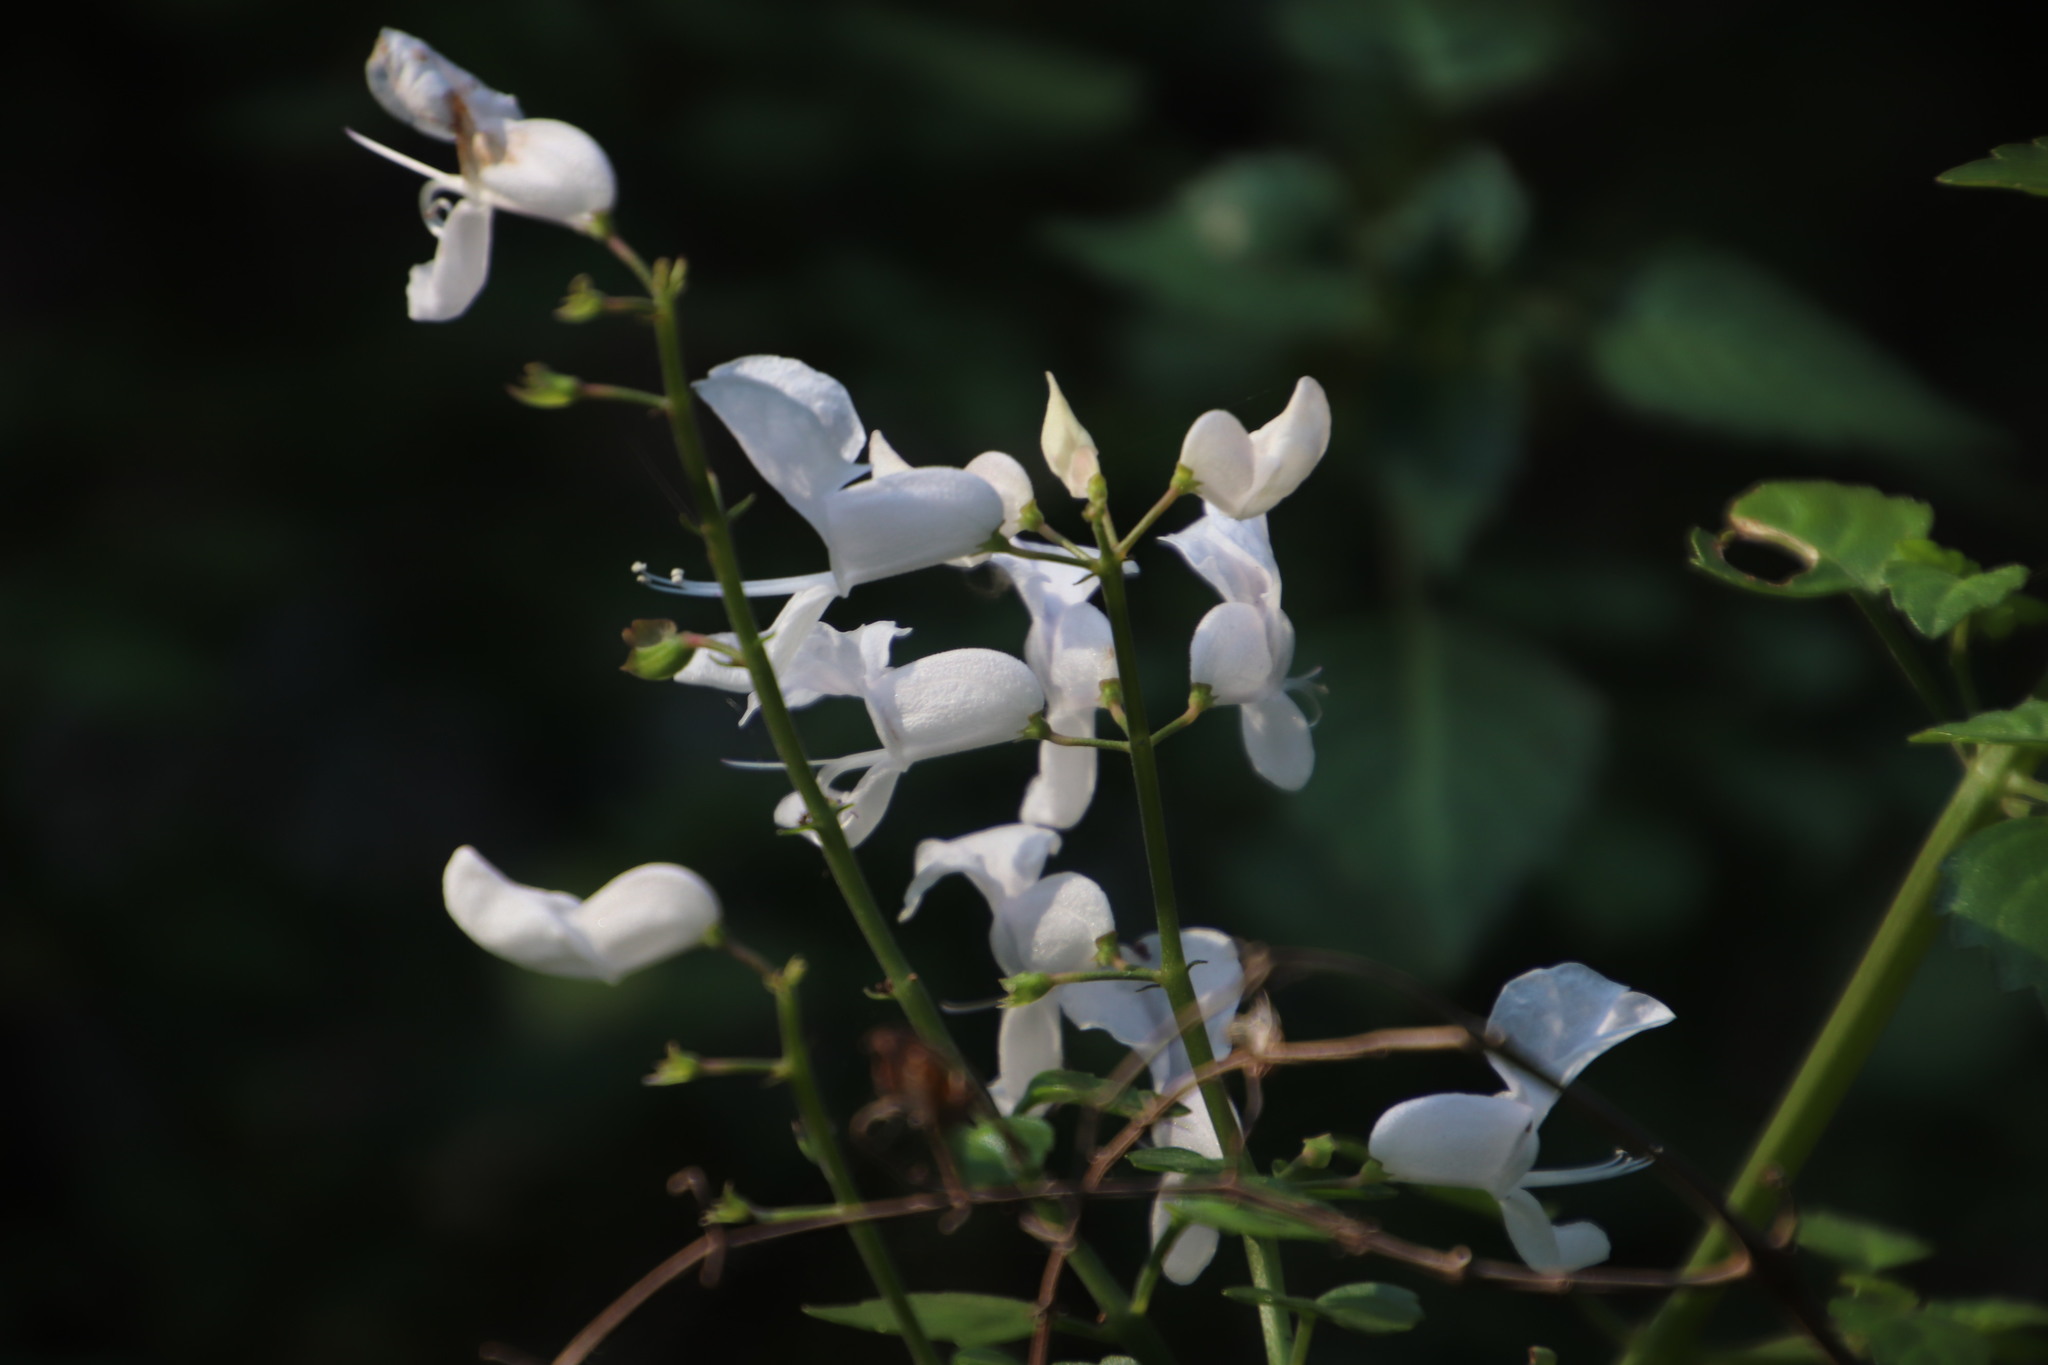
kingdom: Plantae
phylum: Tracheophyta
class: Magnoliopsida
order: Lamiales
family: Lamiaceae
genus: Plectranthus
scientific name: Plectranthus saccatus
